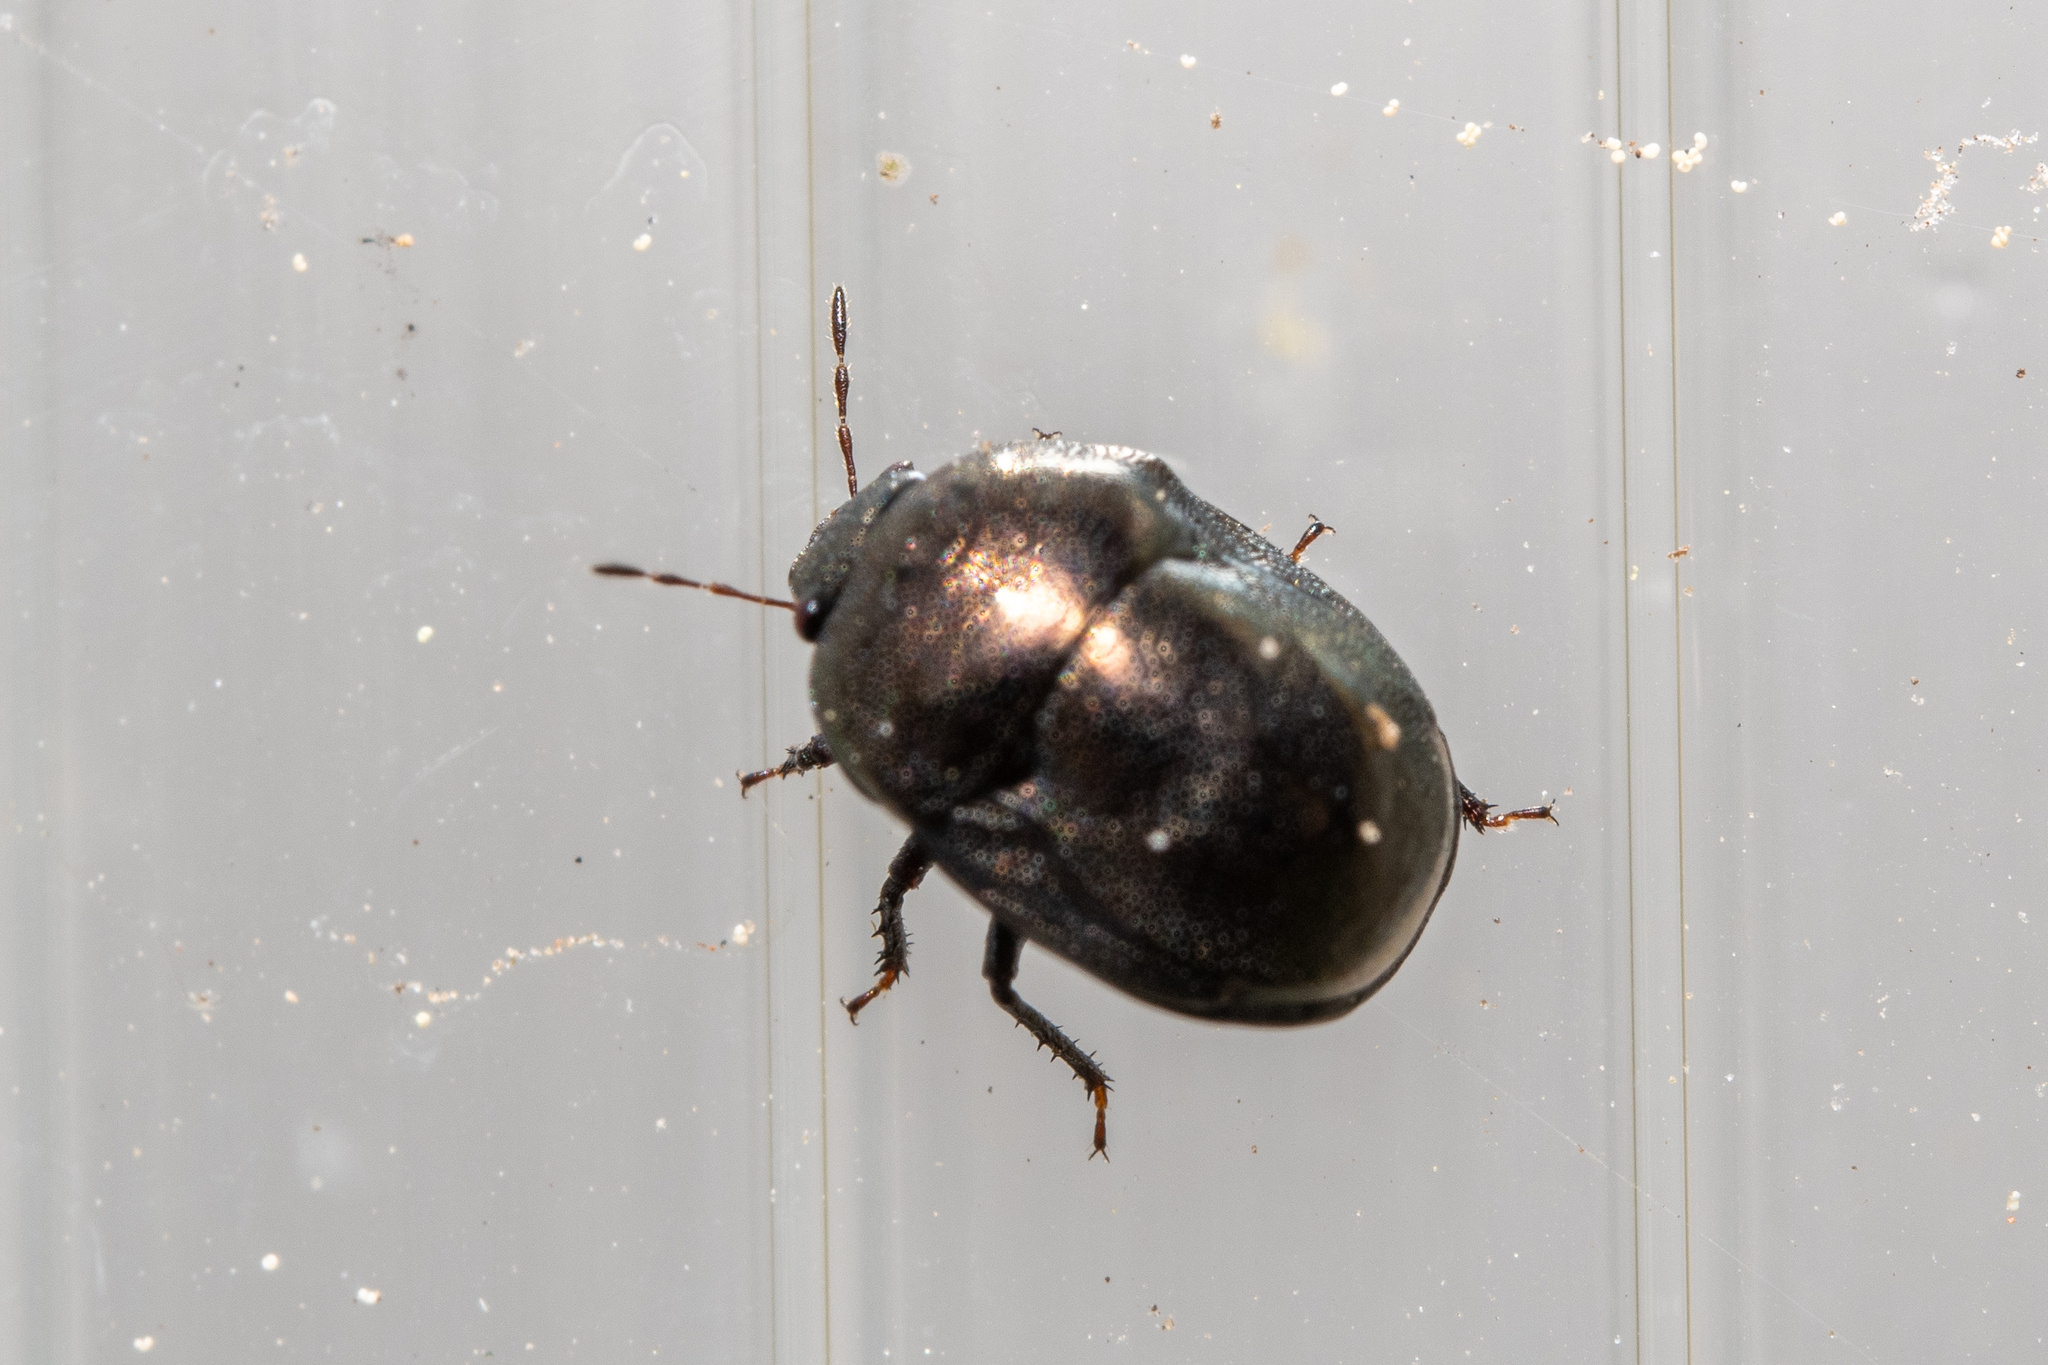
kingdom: Animalia
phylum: Arthropoda
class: Insecta
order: Hemiptera
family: Thyreocoridae
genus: Thyreocoris
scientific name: Thyreocoris scarabaeoides
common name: Negro bug
